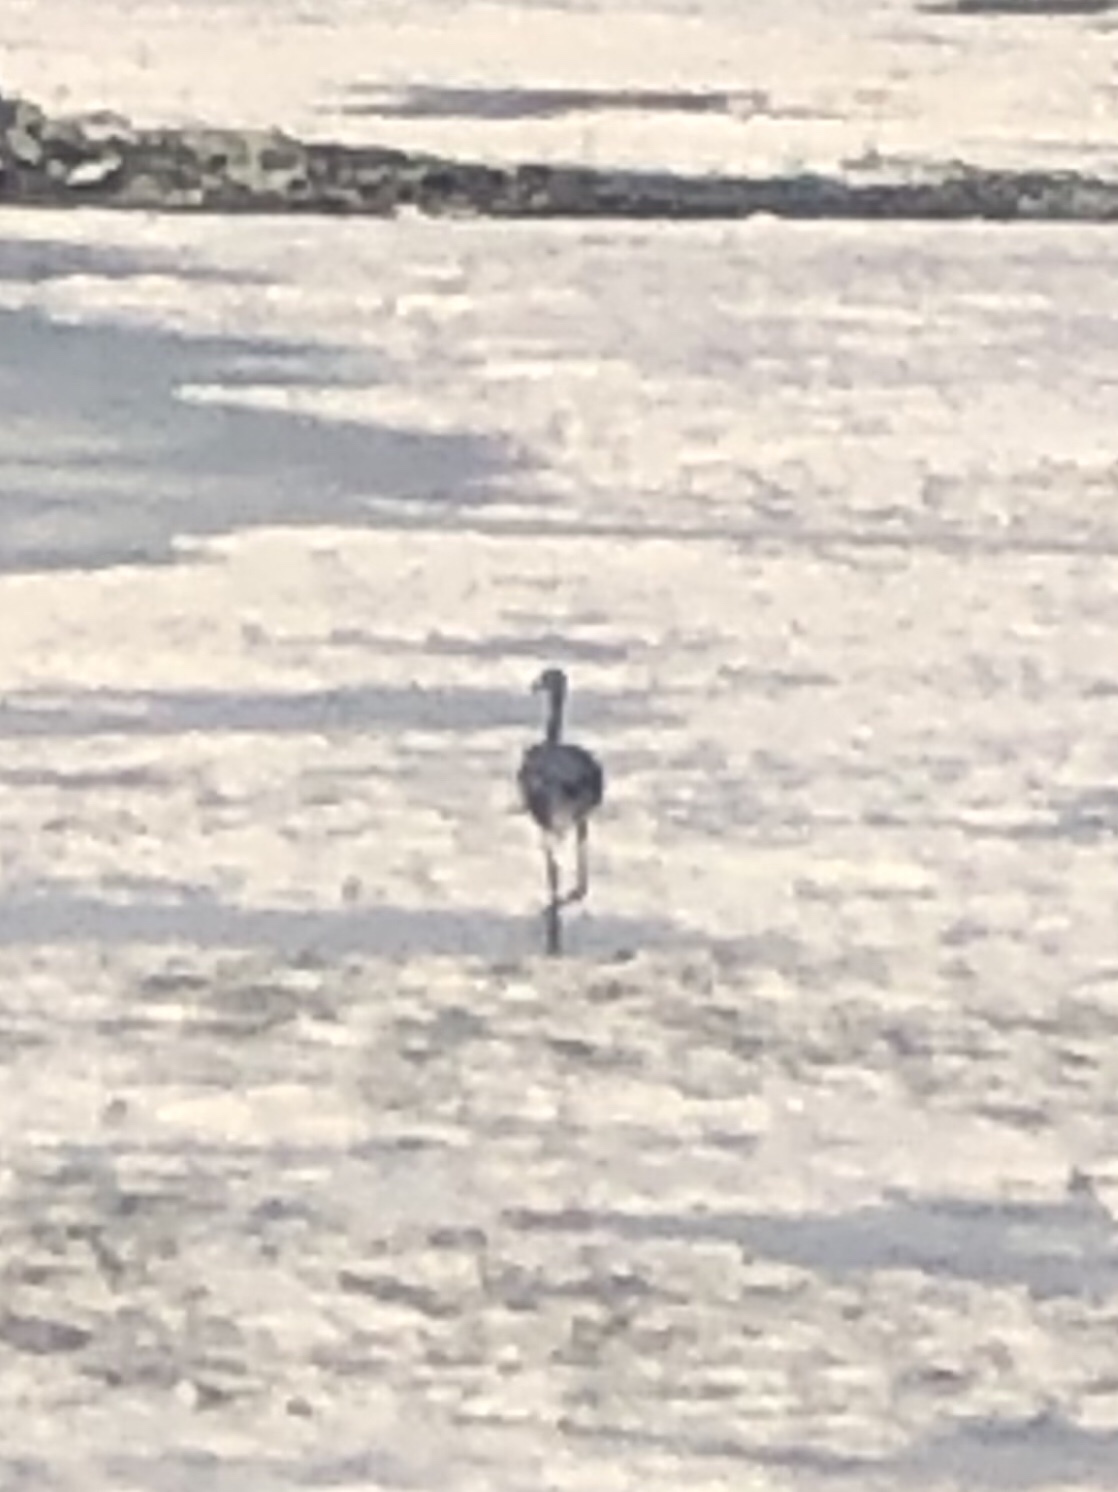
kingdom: Animalia
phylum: Chordata
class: Aves
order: Pelecaniformes
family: Ardeidae
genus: Egretta
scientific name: Egretta dimorpha
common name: Dimorphic egret
